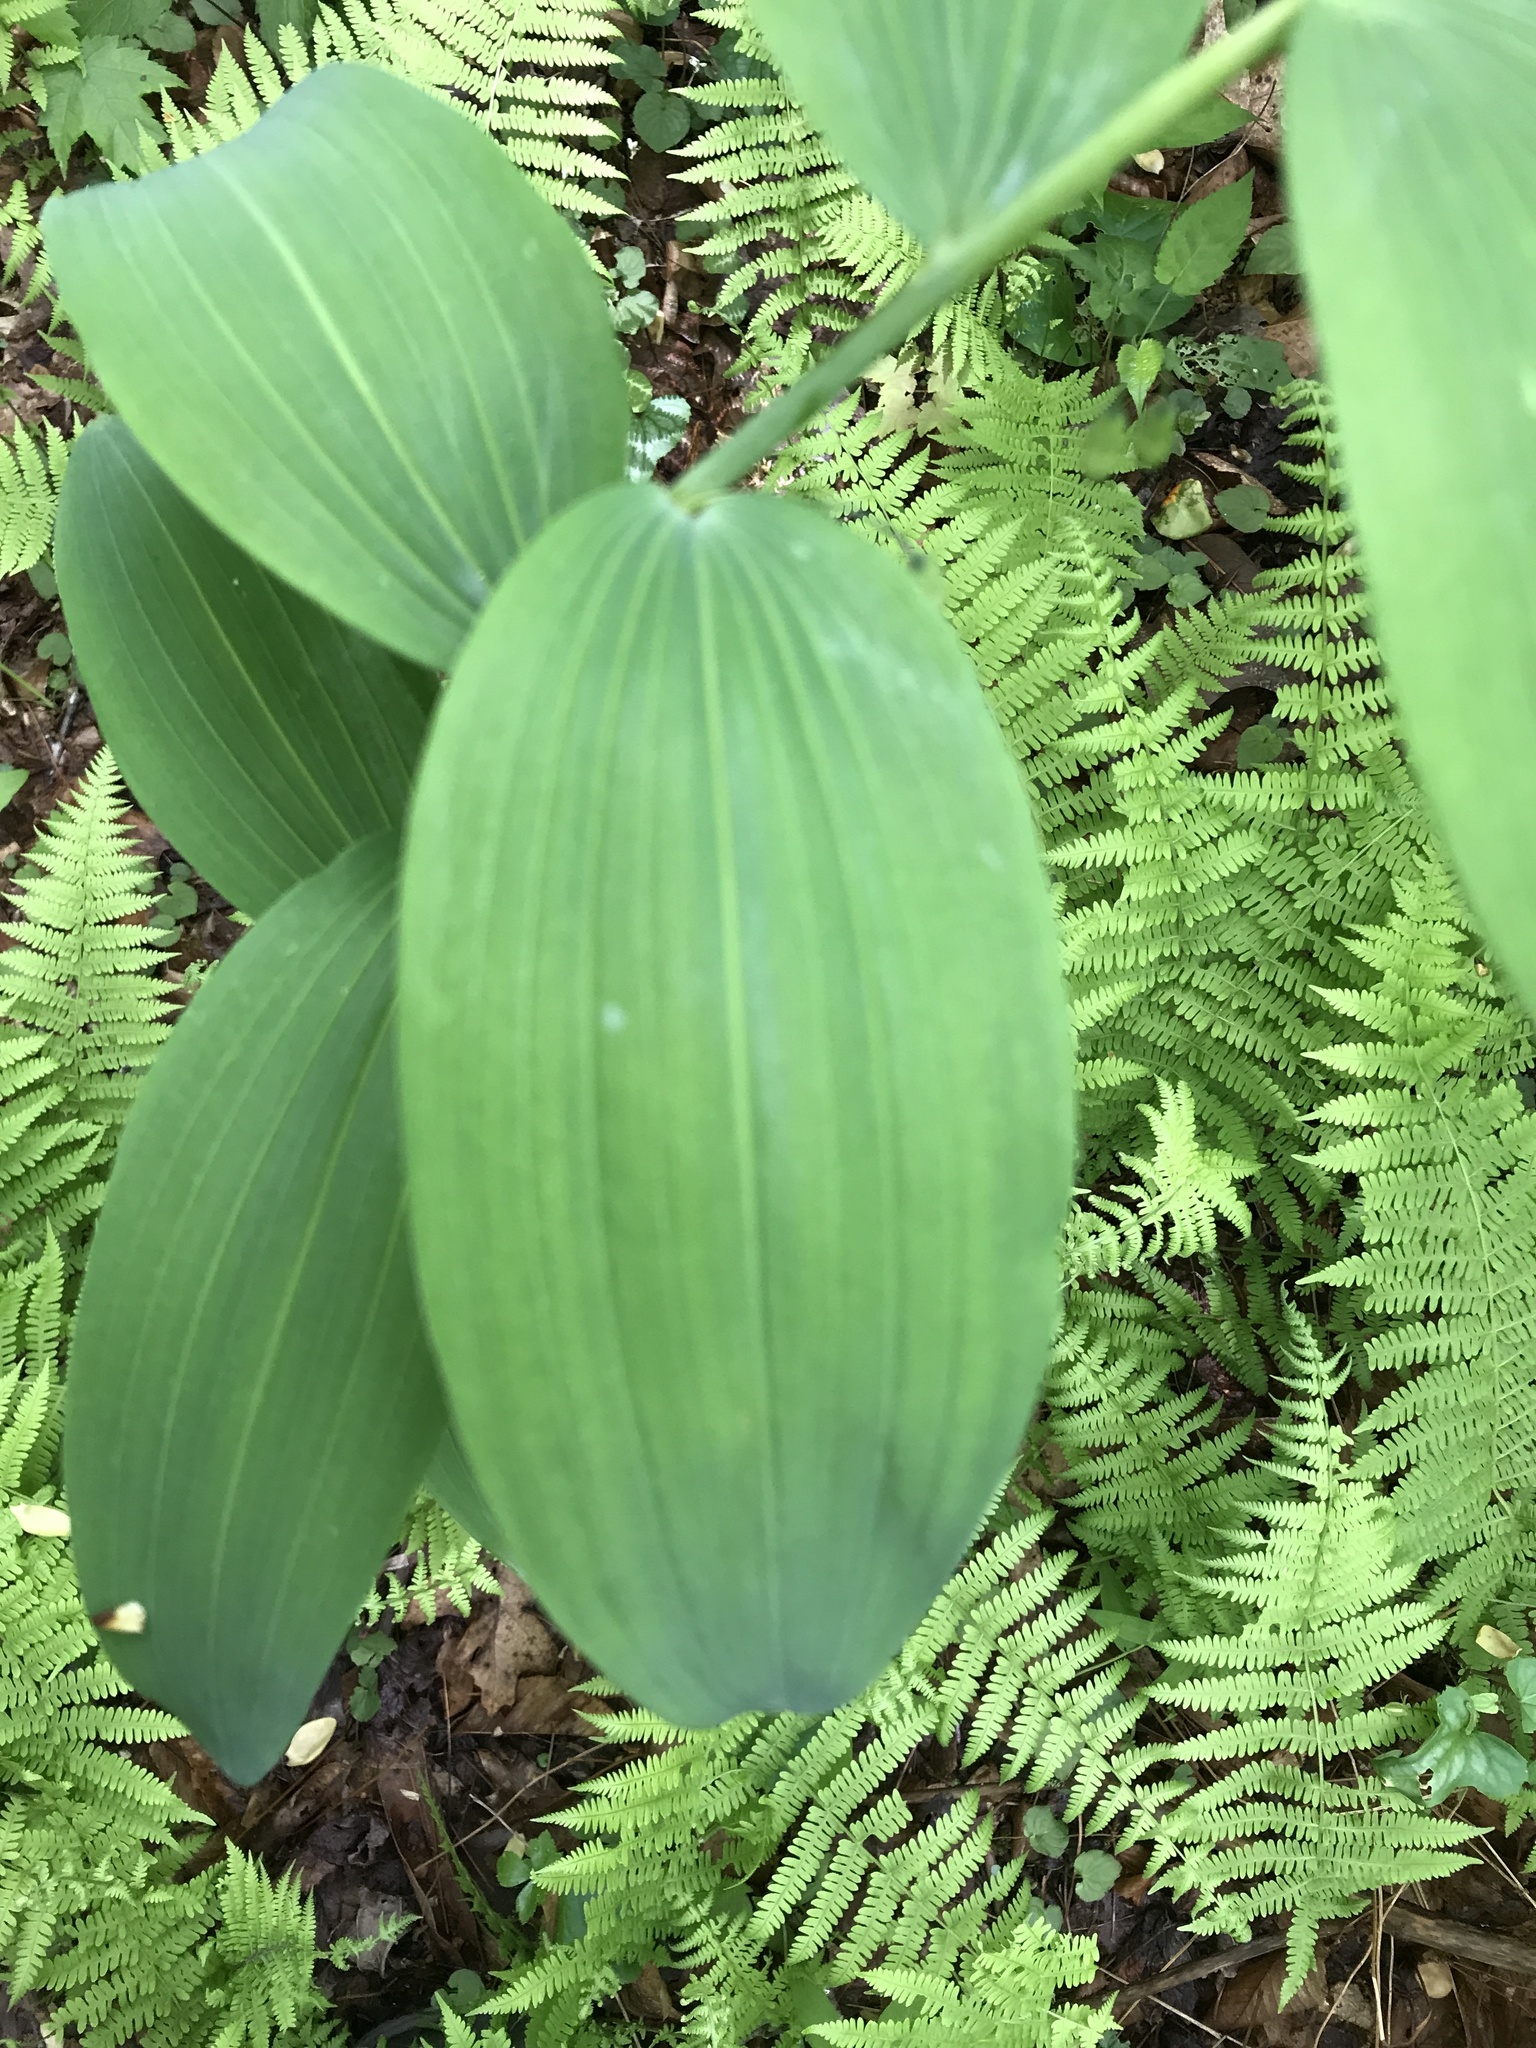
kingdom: Plantae
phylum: Tracheophyta
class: Liliopsida
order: Asparagales
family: Asparagaceae
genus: Polygonatum
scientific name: Polygonatum biflorum
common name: American solomon's-seal
